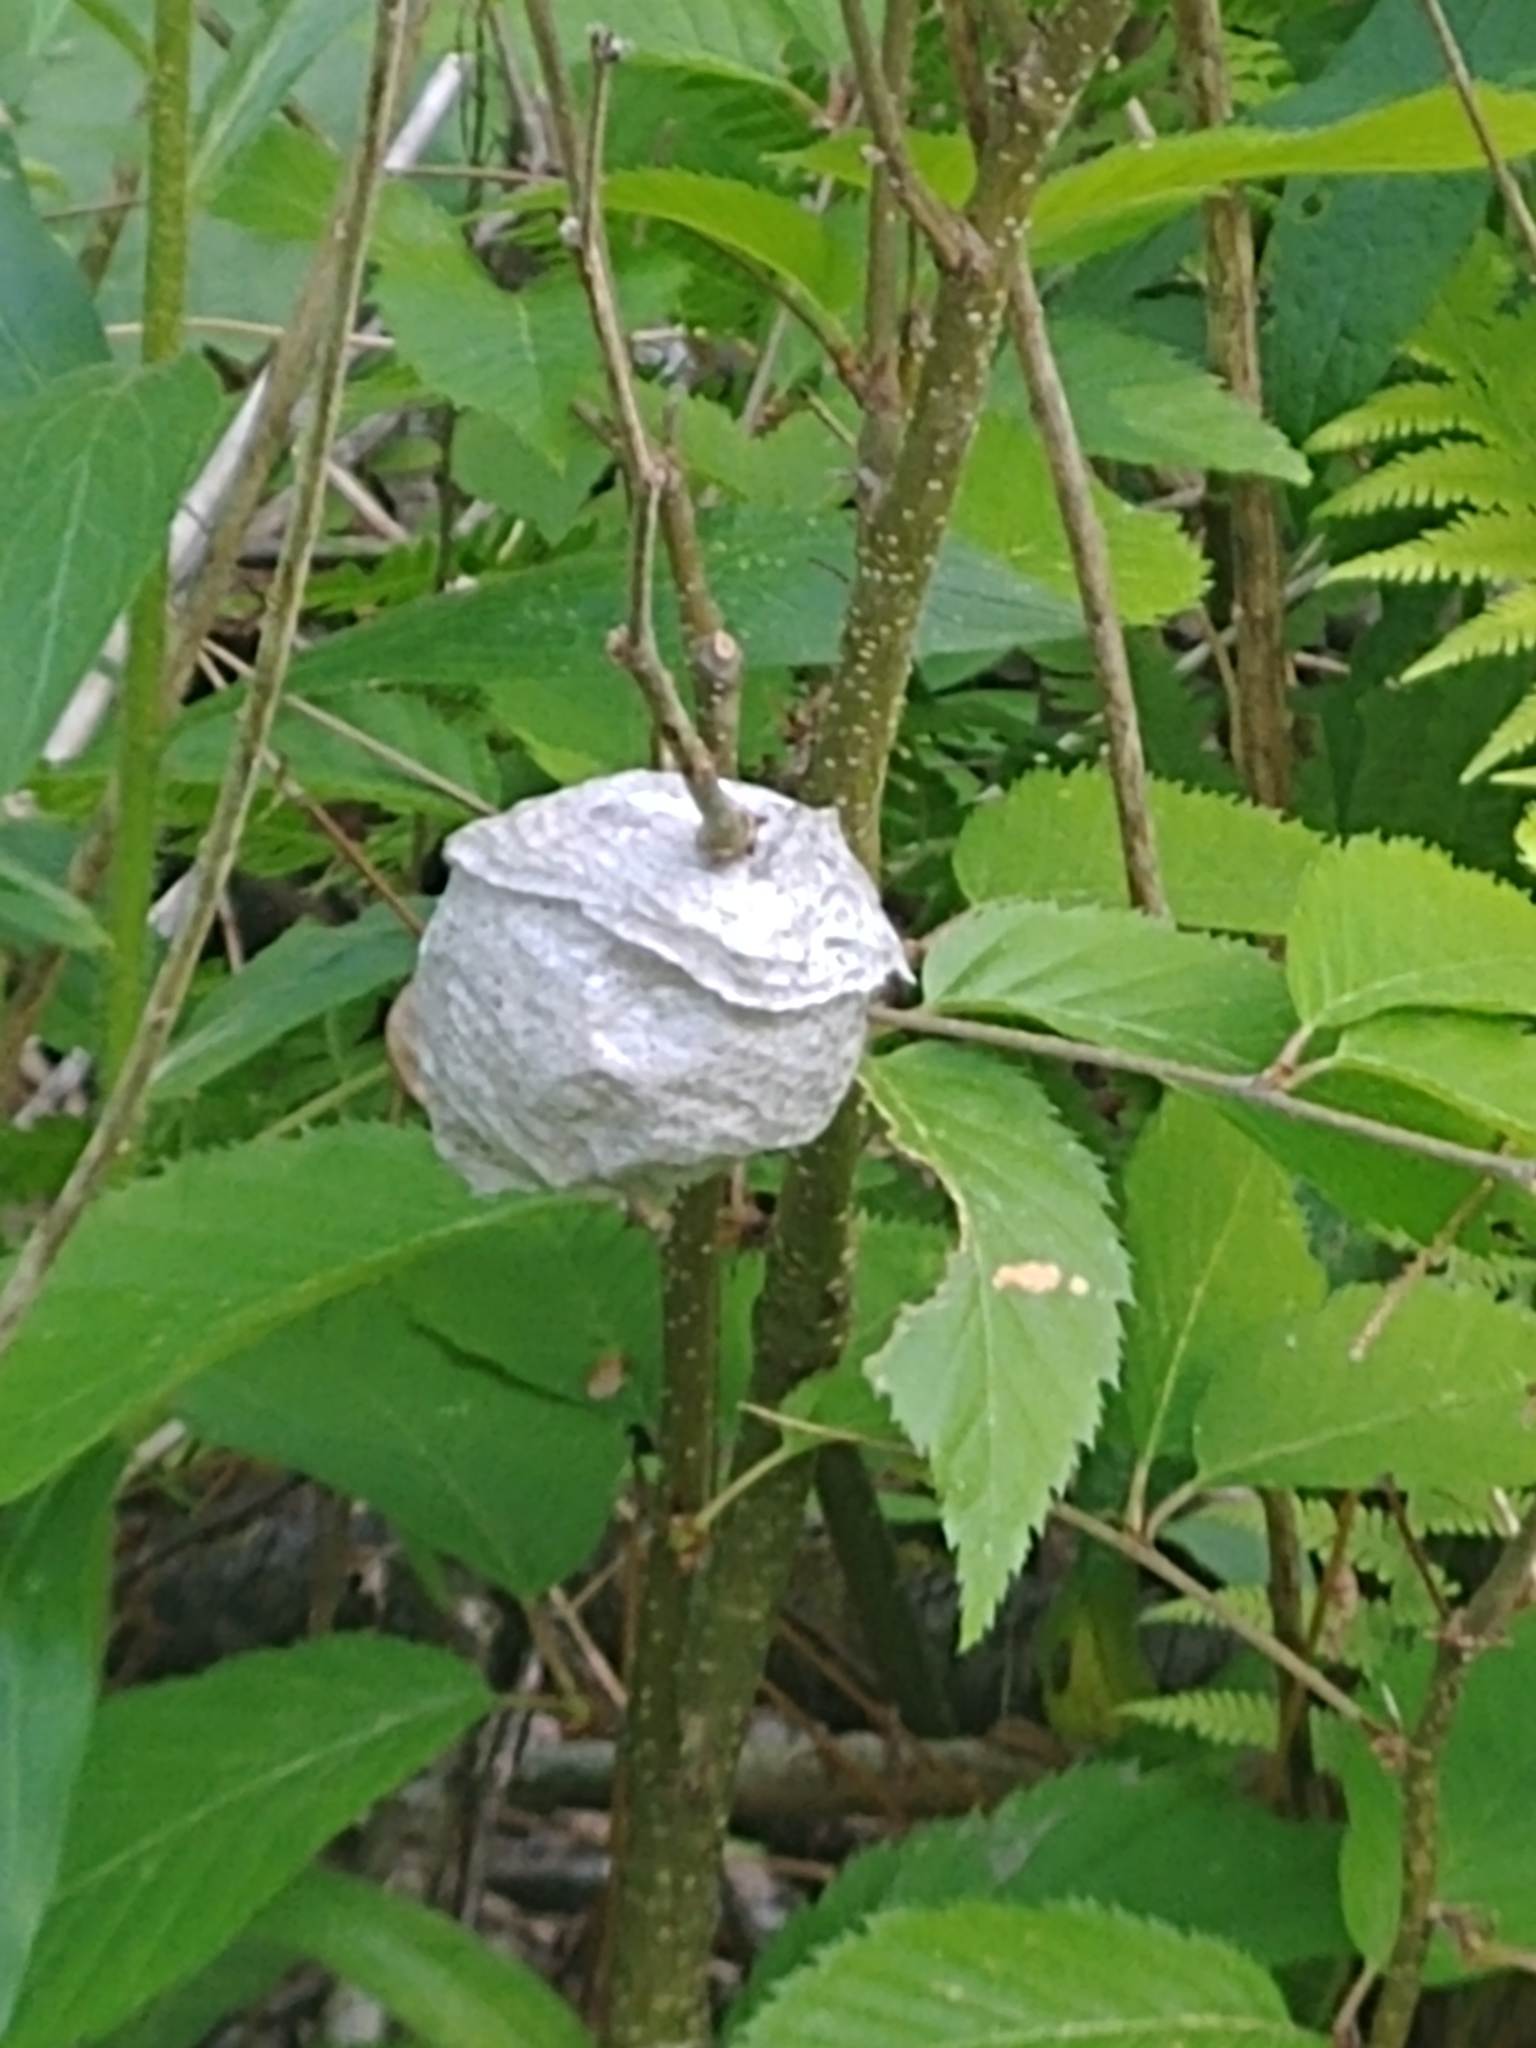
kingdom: Animalia
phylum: Arthropoda
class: Insecta
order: Hymenoptera
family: Vespidae
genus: Dolichovespula
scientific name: Dolichovespula
